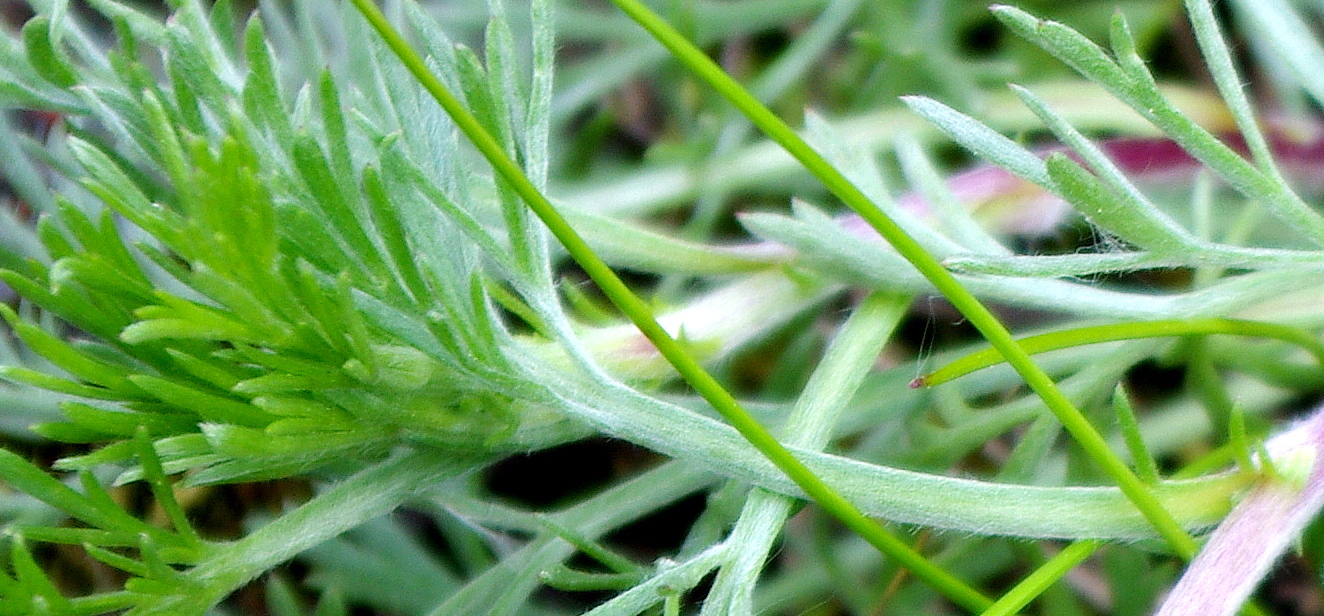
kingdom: Plantae
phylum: Tracheophyta
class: Magnoliopsida
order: Asterales
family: Asteraceae
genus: Artemisia
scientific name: Artemisia campestris
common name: Field wormwood
